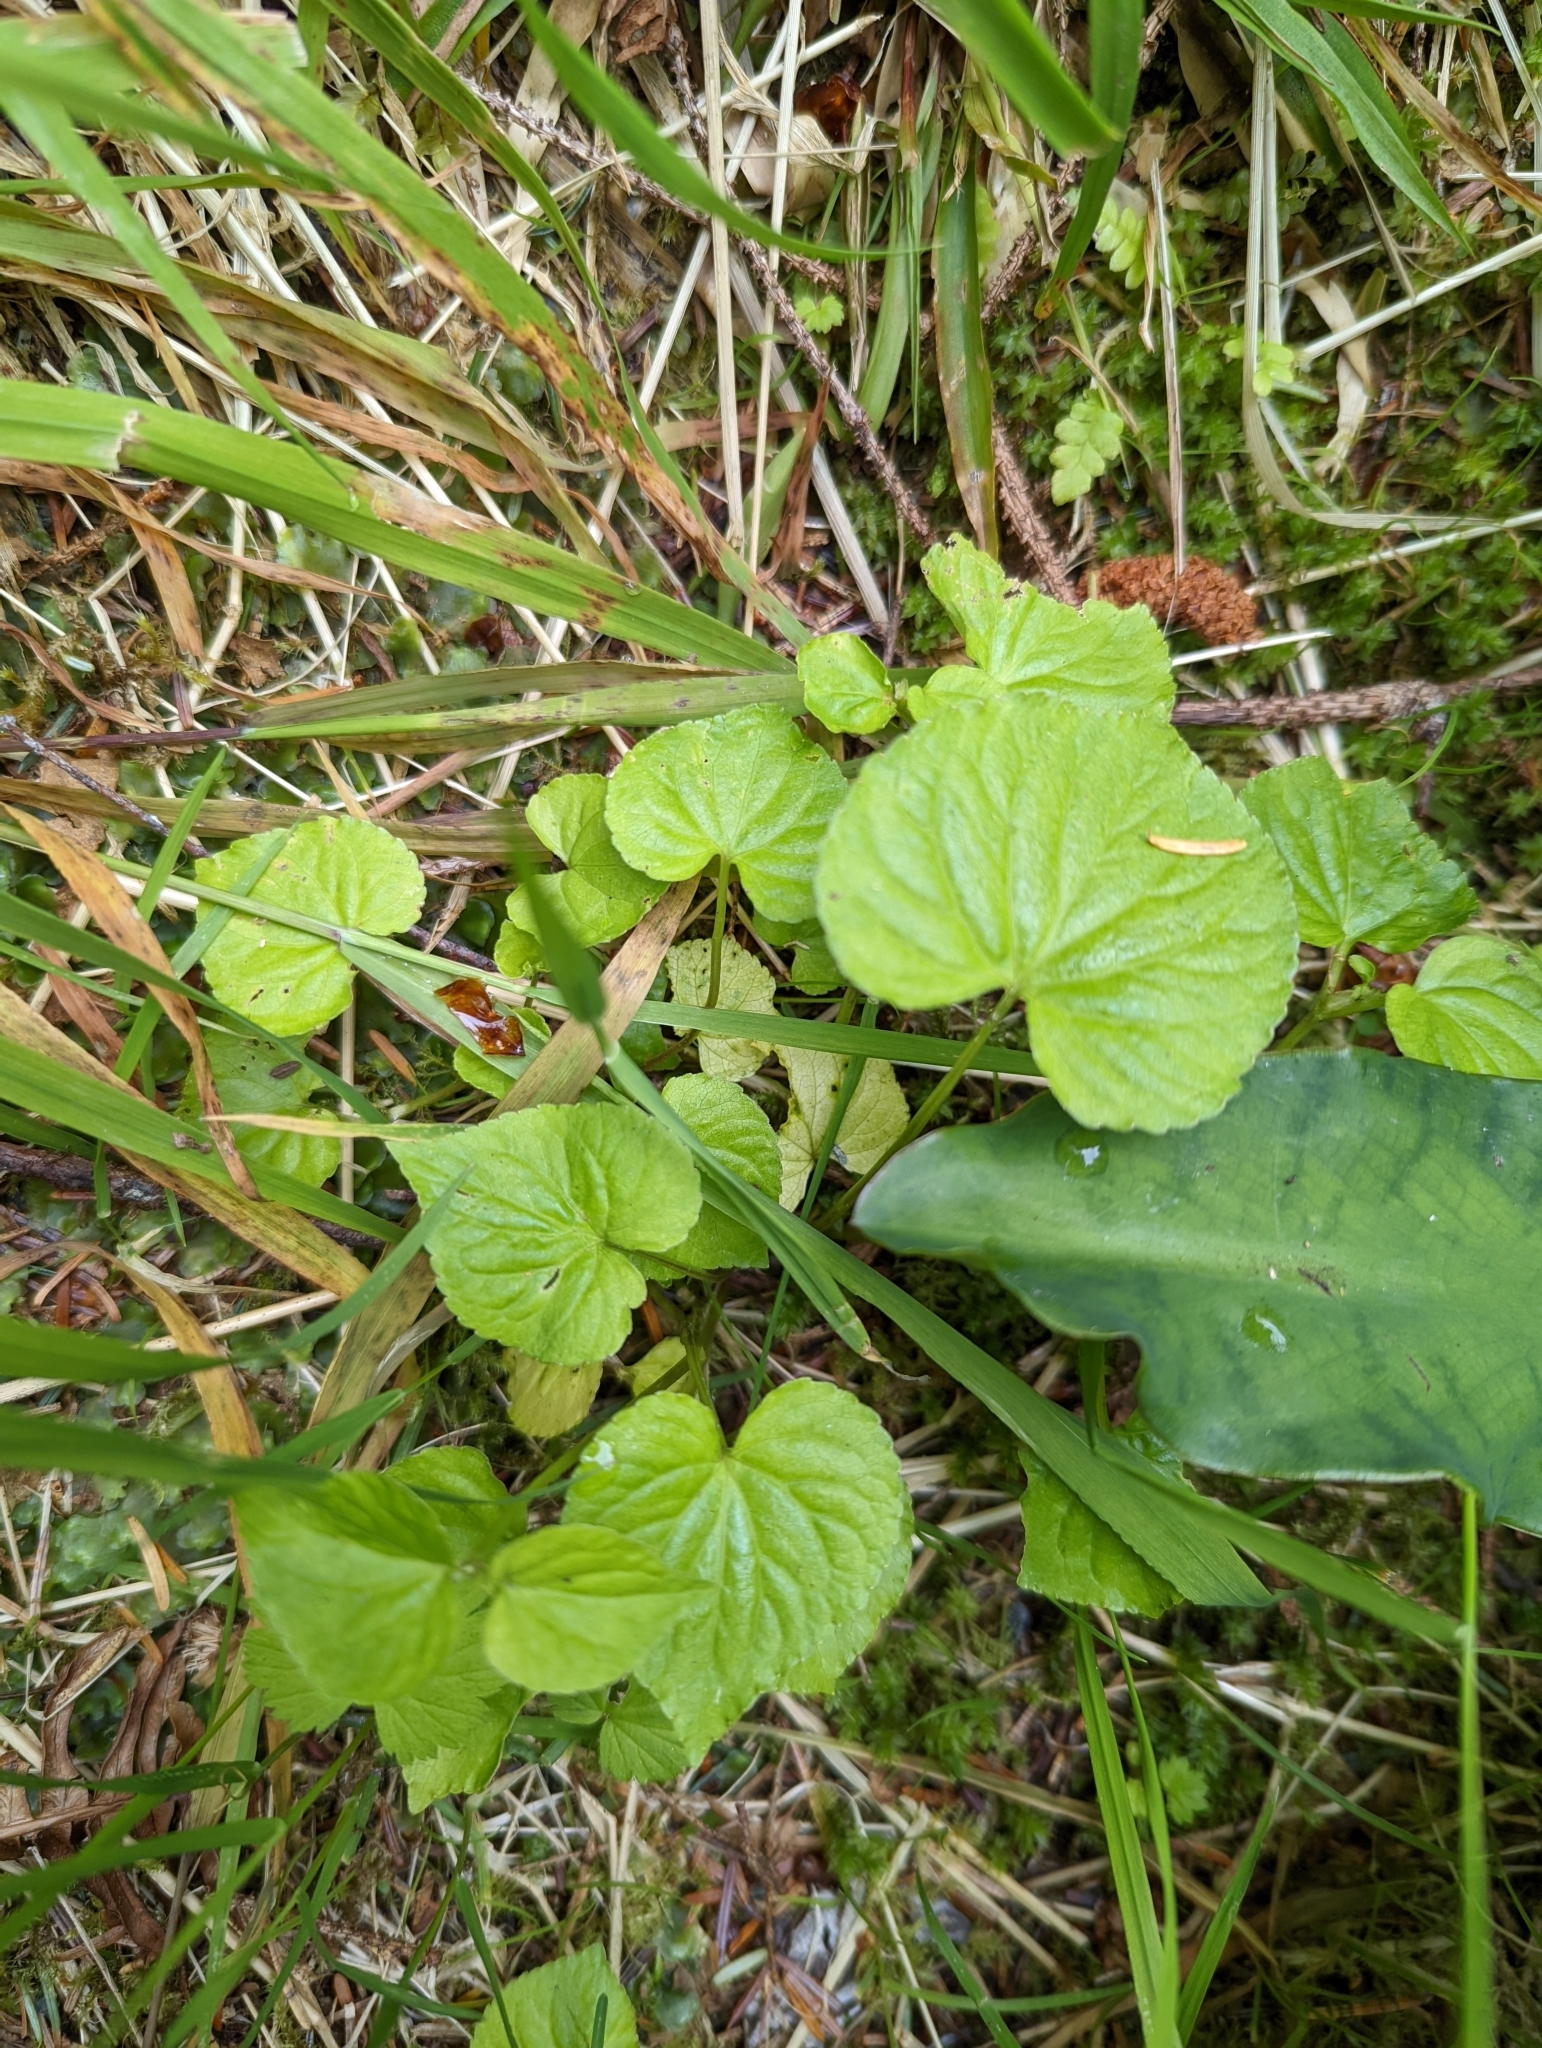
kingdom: Plantae
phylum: Tracheophyta
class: Magnoliopsida
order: Malpighiales
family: Violaceae
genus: Viola
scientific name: Viola glabella
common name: Stream violet
